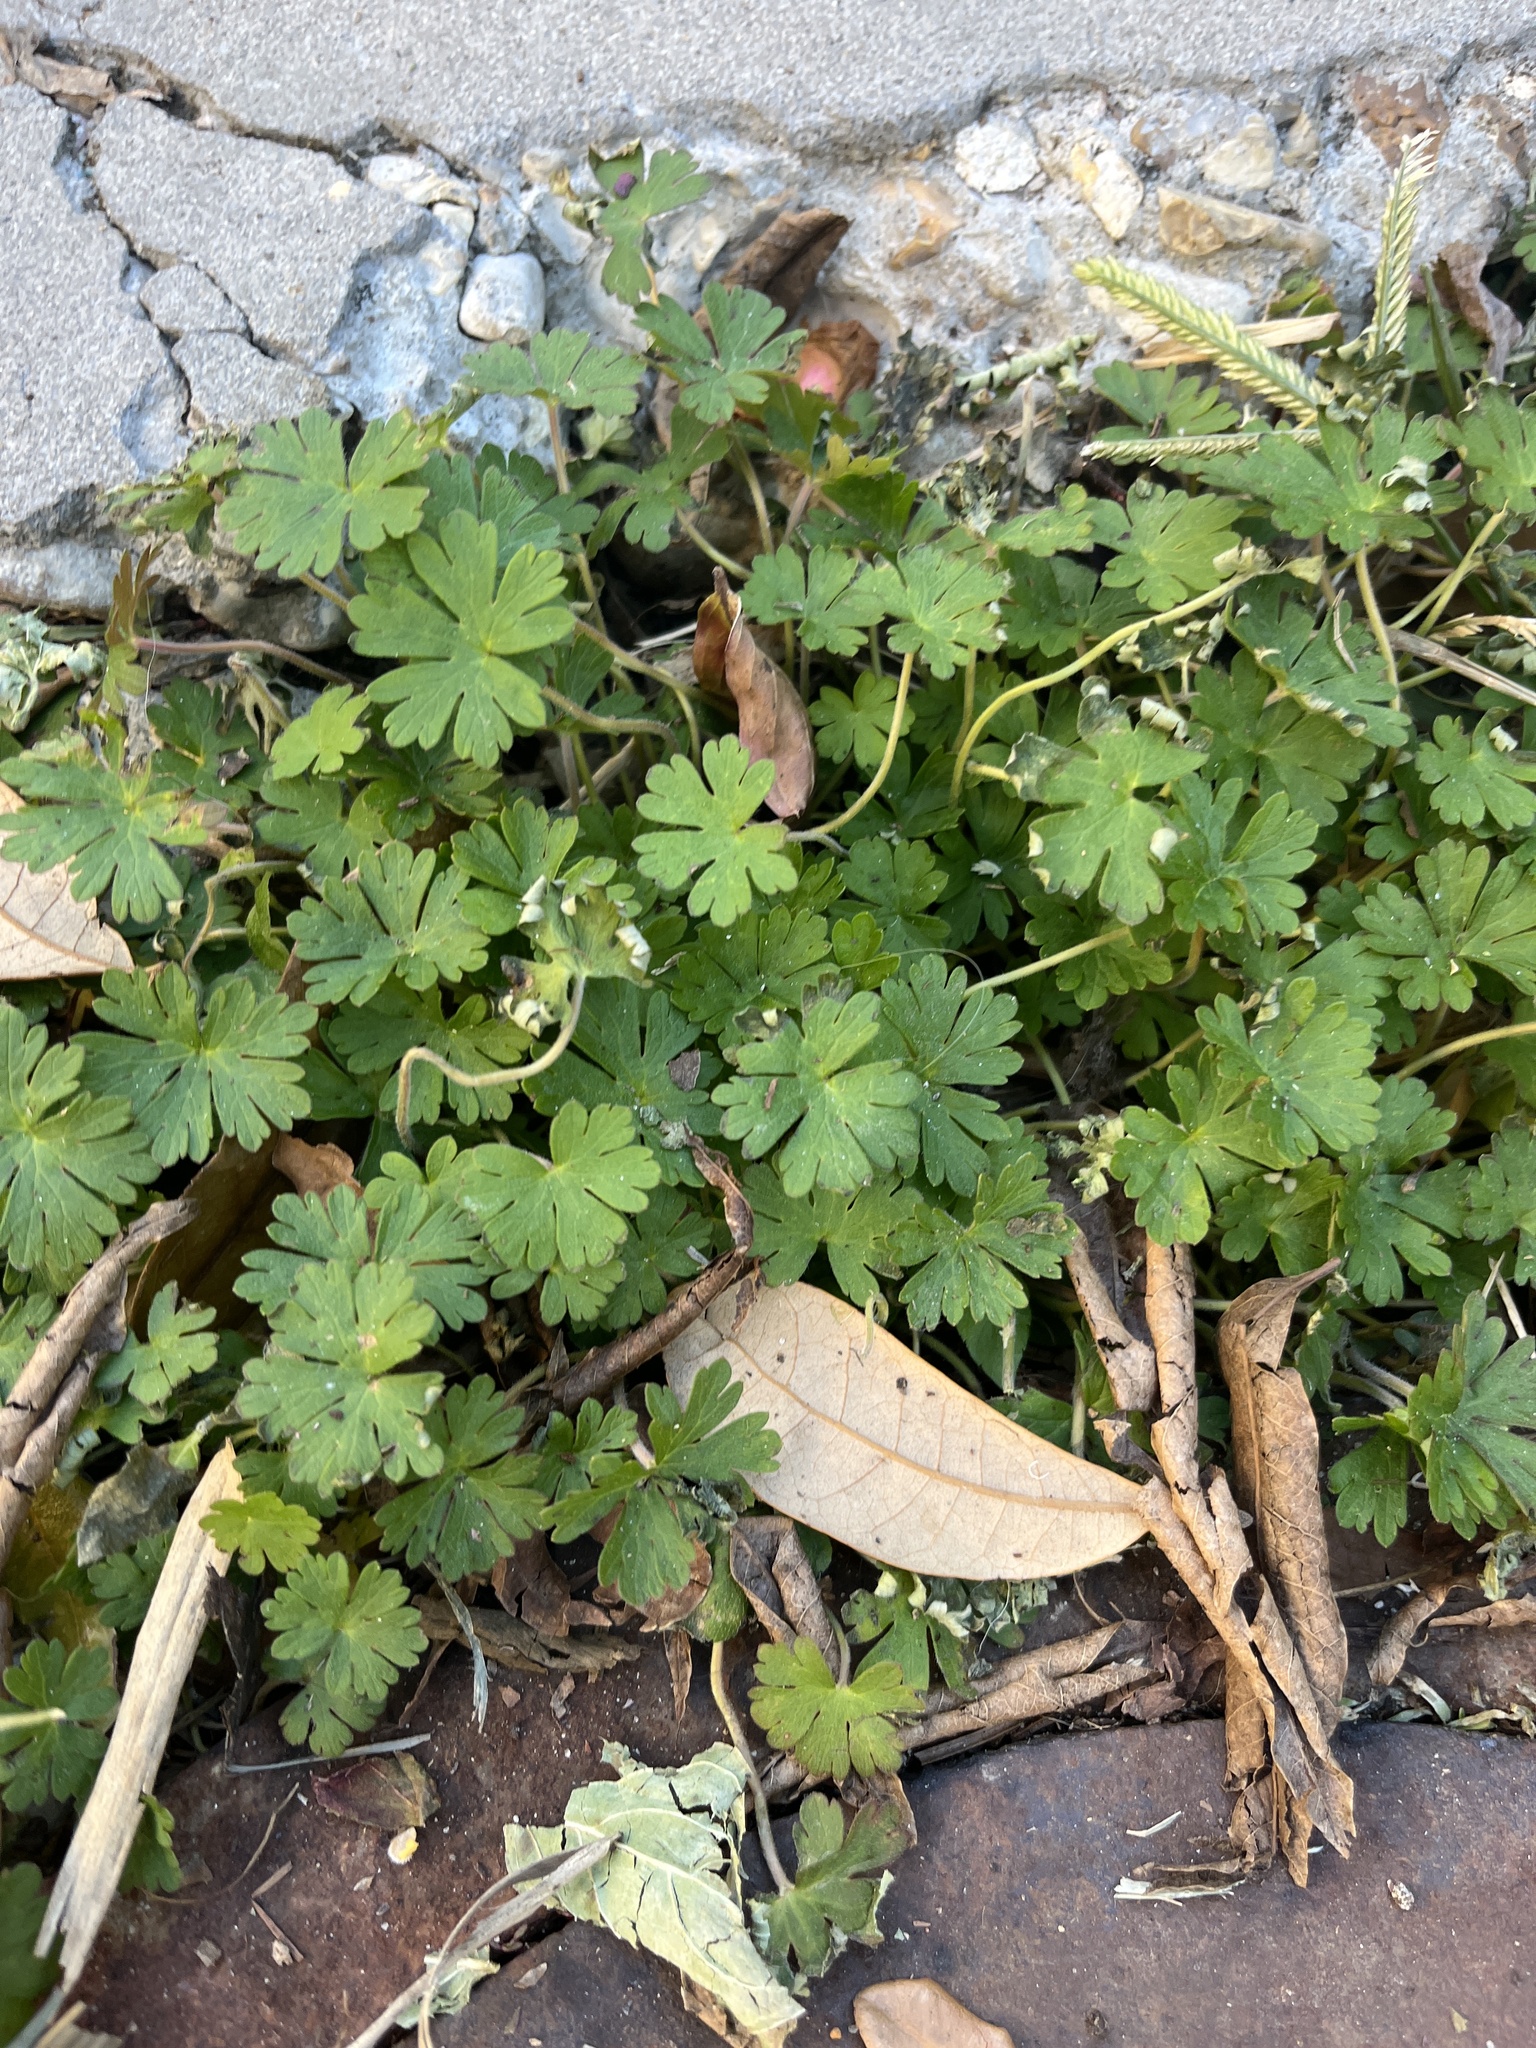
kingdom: Plantae
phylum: Tracheophyta
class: Magnoliopsida
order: Geraniales
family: Geraniaceae
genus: Geranium
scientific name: Geranium carolinianum
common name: Carolina crane's-bill
